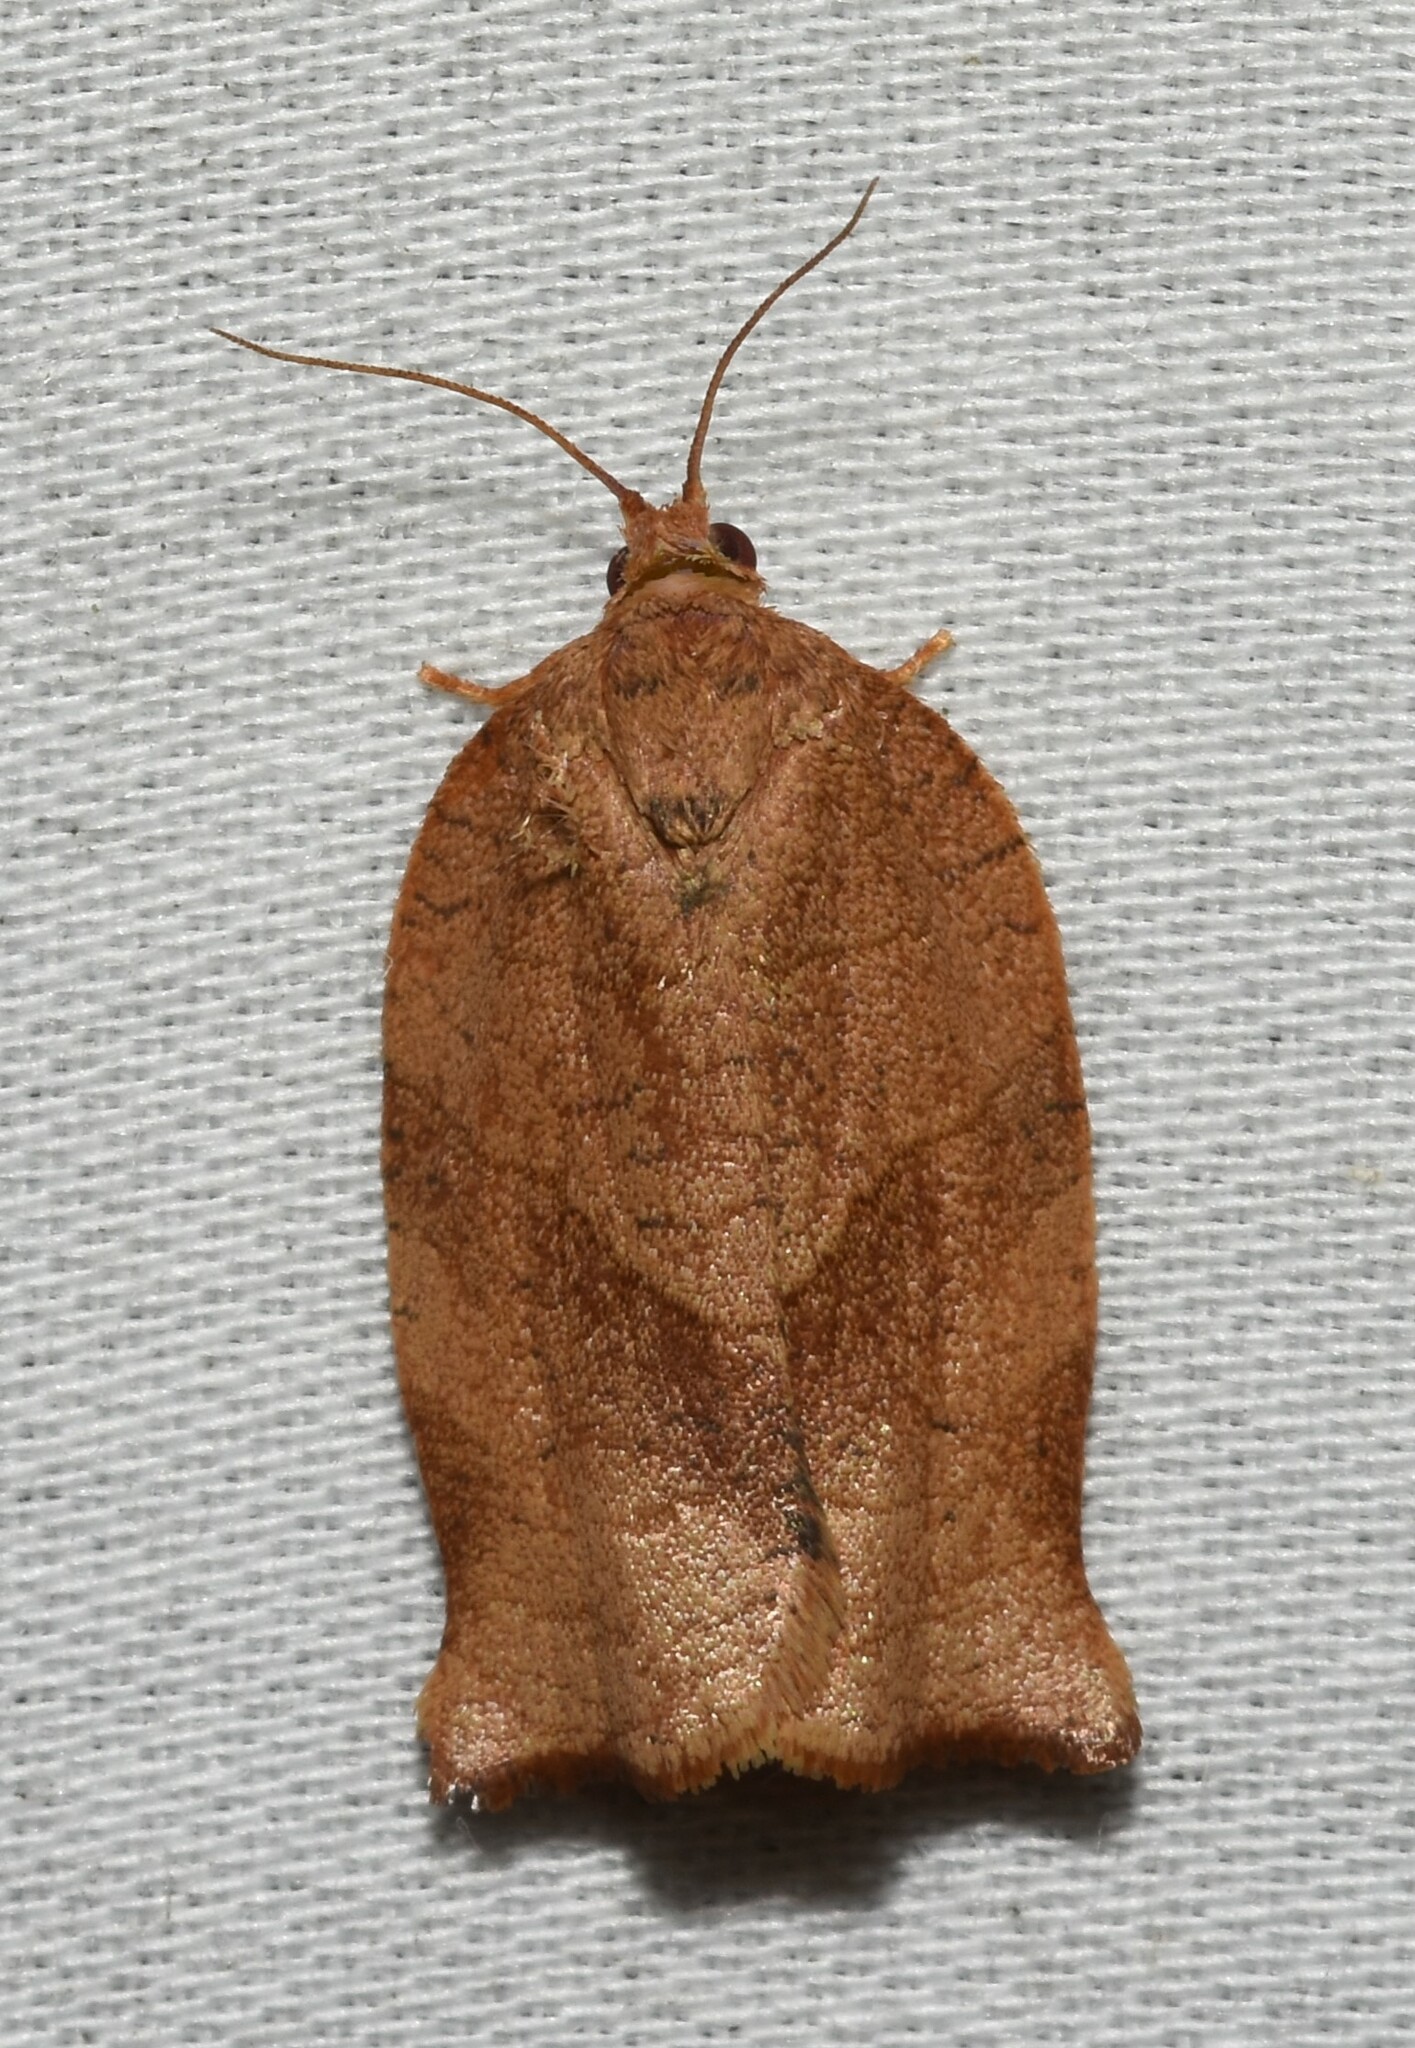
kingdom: Animalia
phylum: Arthropoda
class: Insecta
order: Lepidoptera
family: Tortricidae
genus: Choristoneura
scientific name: Choristoneura rosaceana
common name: Oblique-banded leafroller moth
